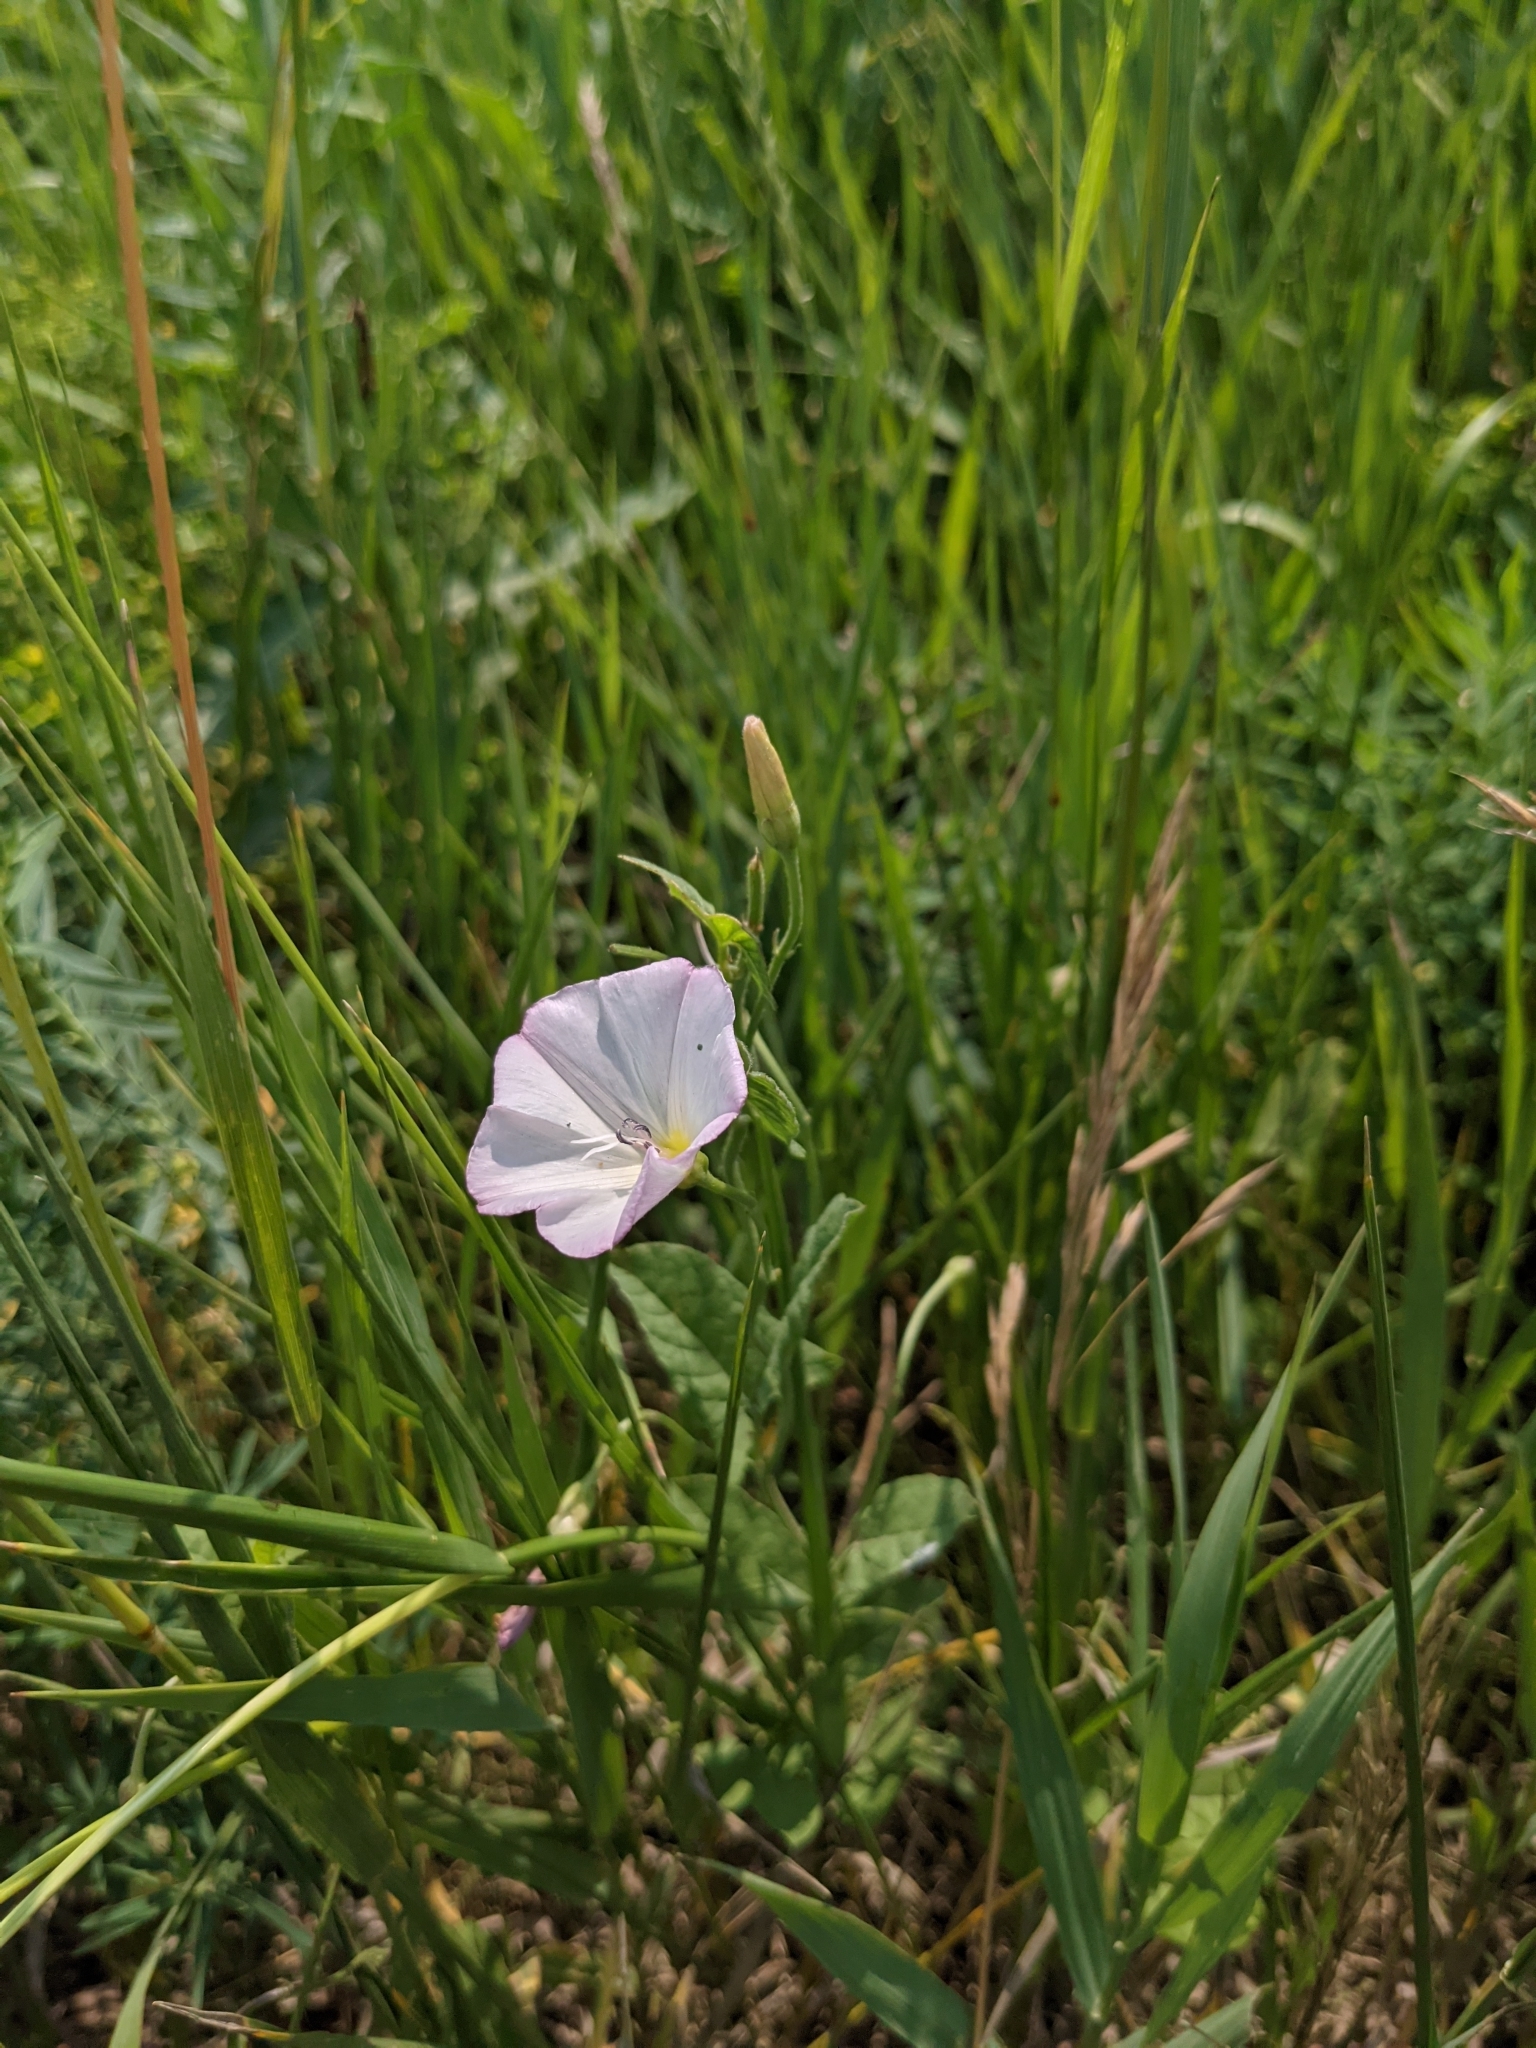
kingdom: Plantae
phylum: Tracheophyta
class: Magnoliopsida
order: Solanales
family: Convolvulaceae
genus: Convolvulus
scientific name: Convolvulus arvensis
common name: Field bindweed
